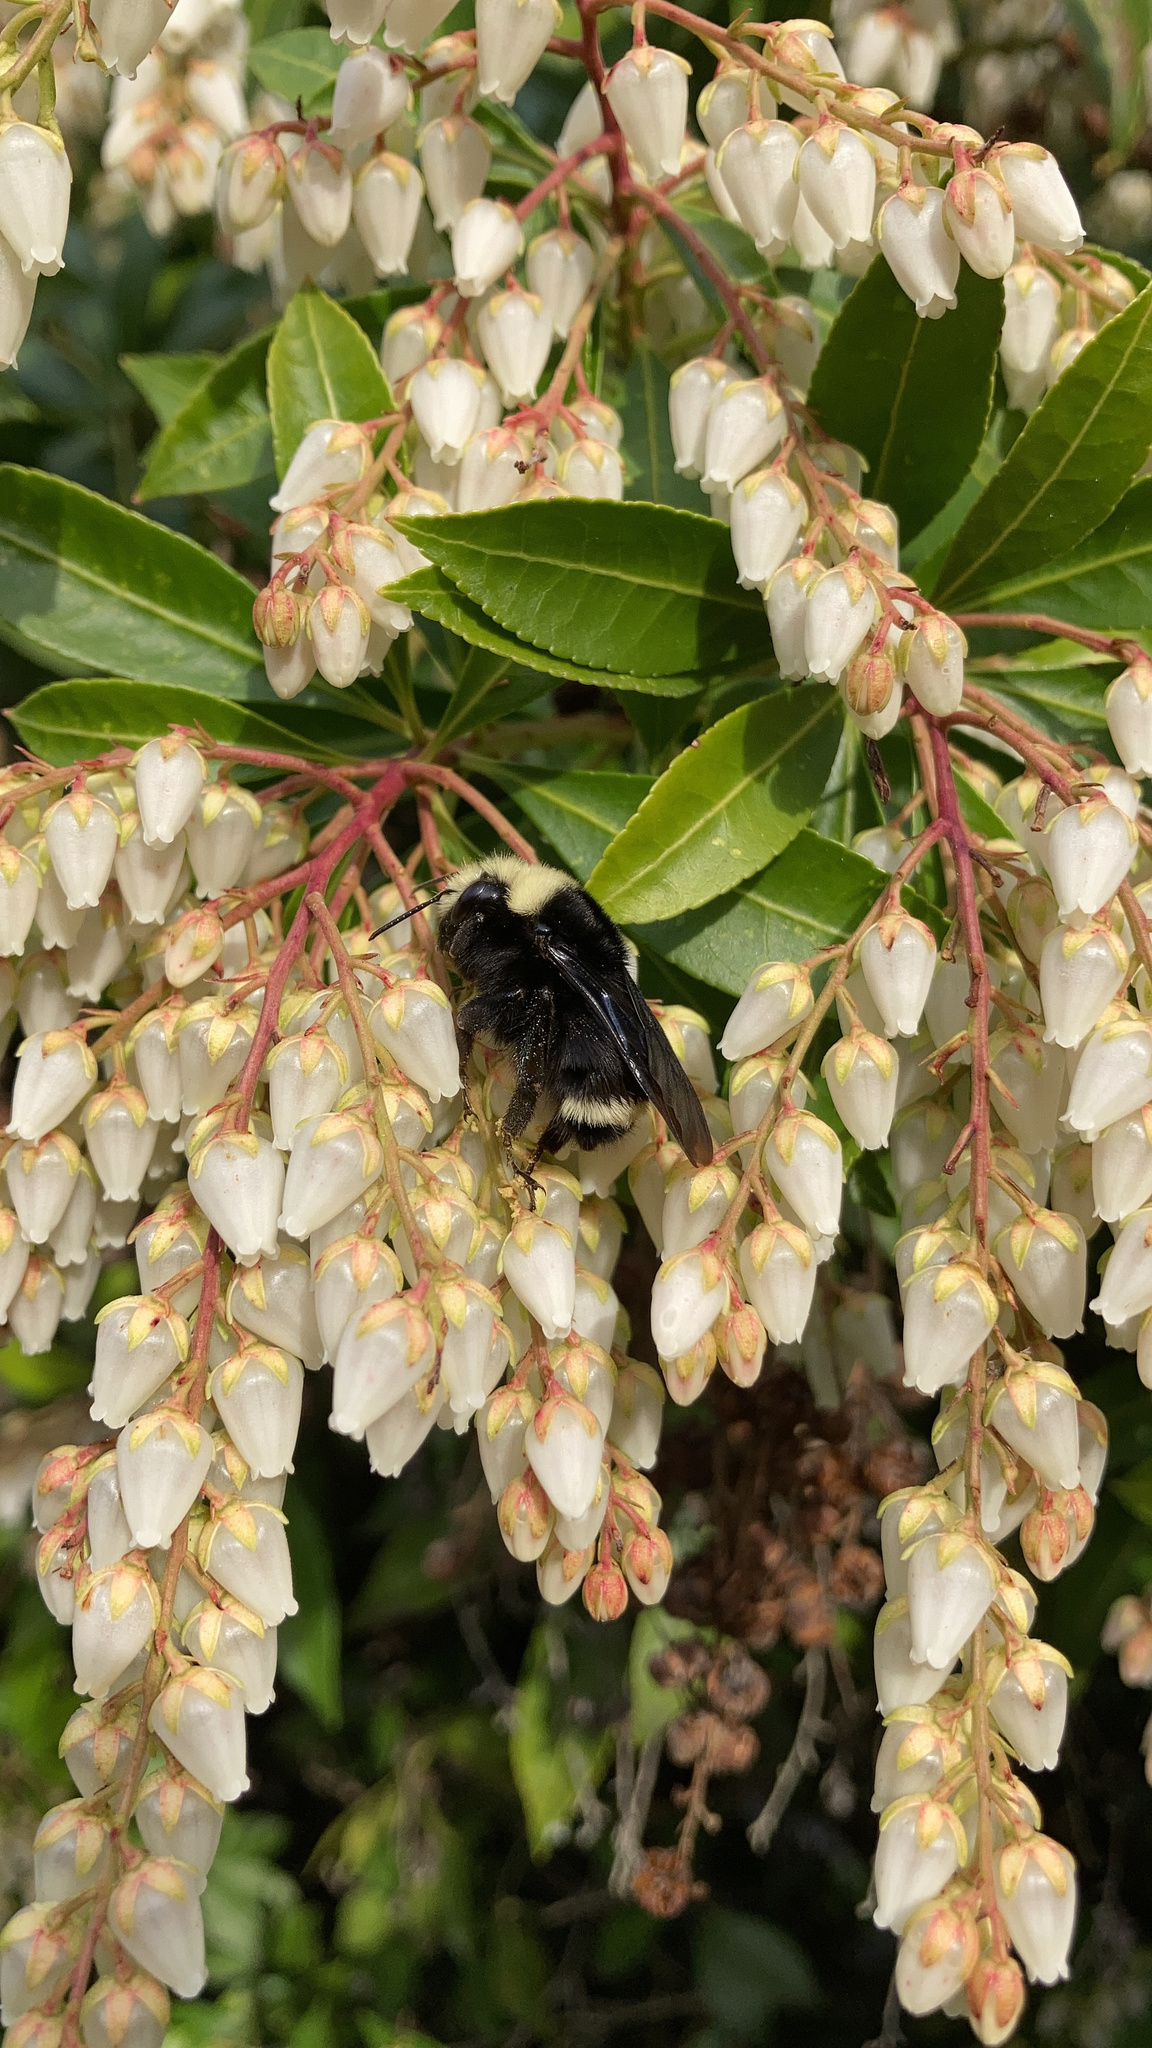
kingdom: Animalia
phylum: Arthropoda
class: Insecta
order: Hymenoptera
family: Apidae
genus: Bombus
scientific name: Bombus vosnesenskii
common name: Vosnesensky bumble bee
